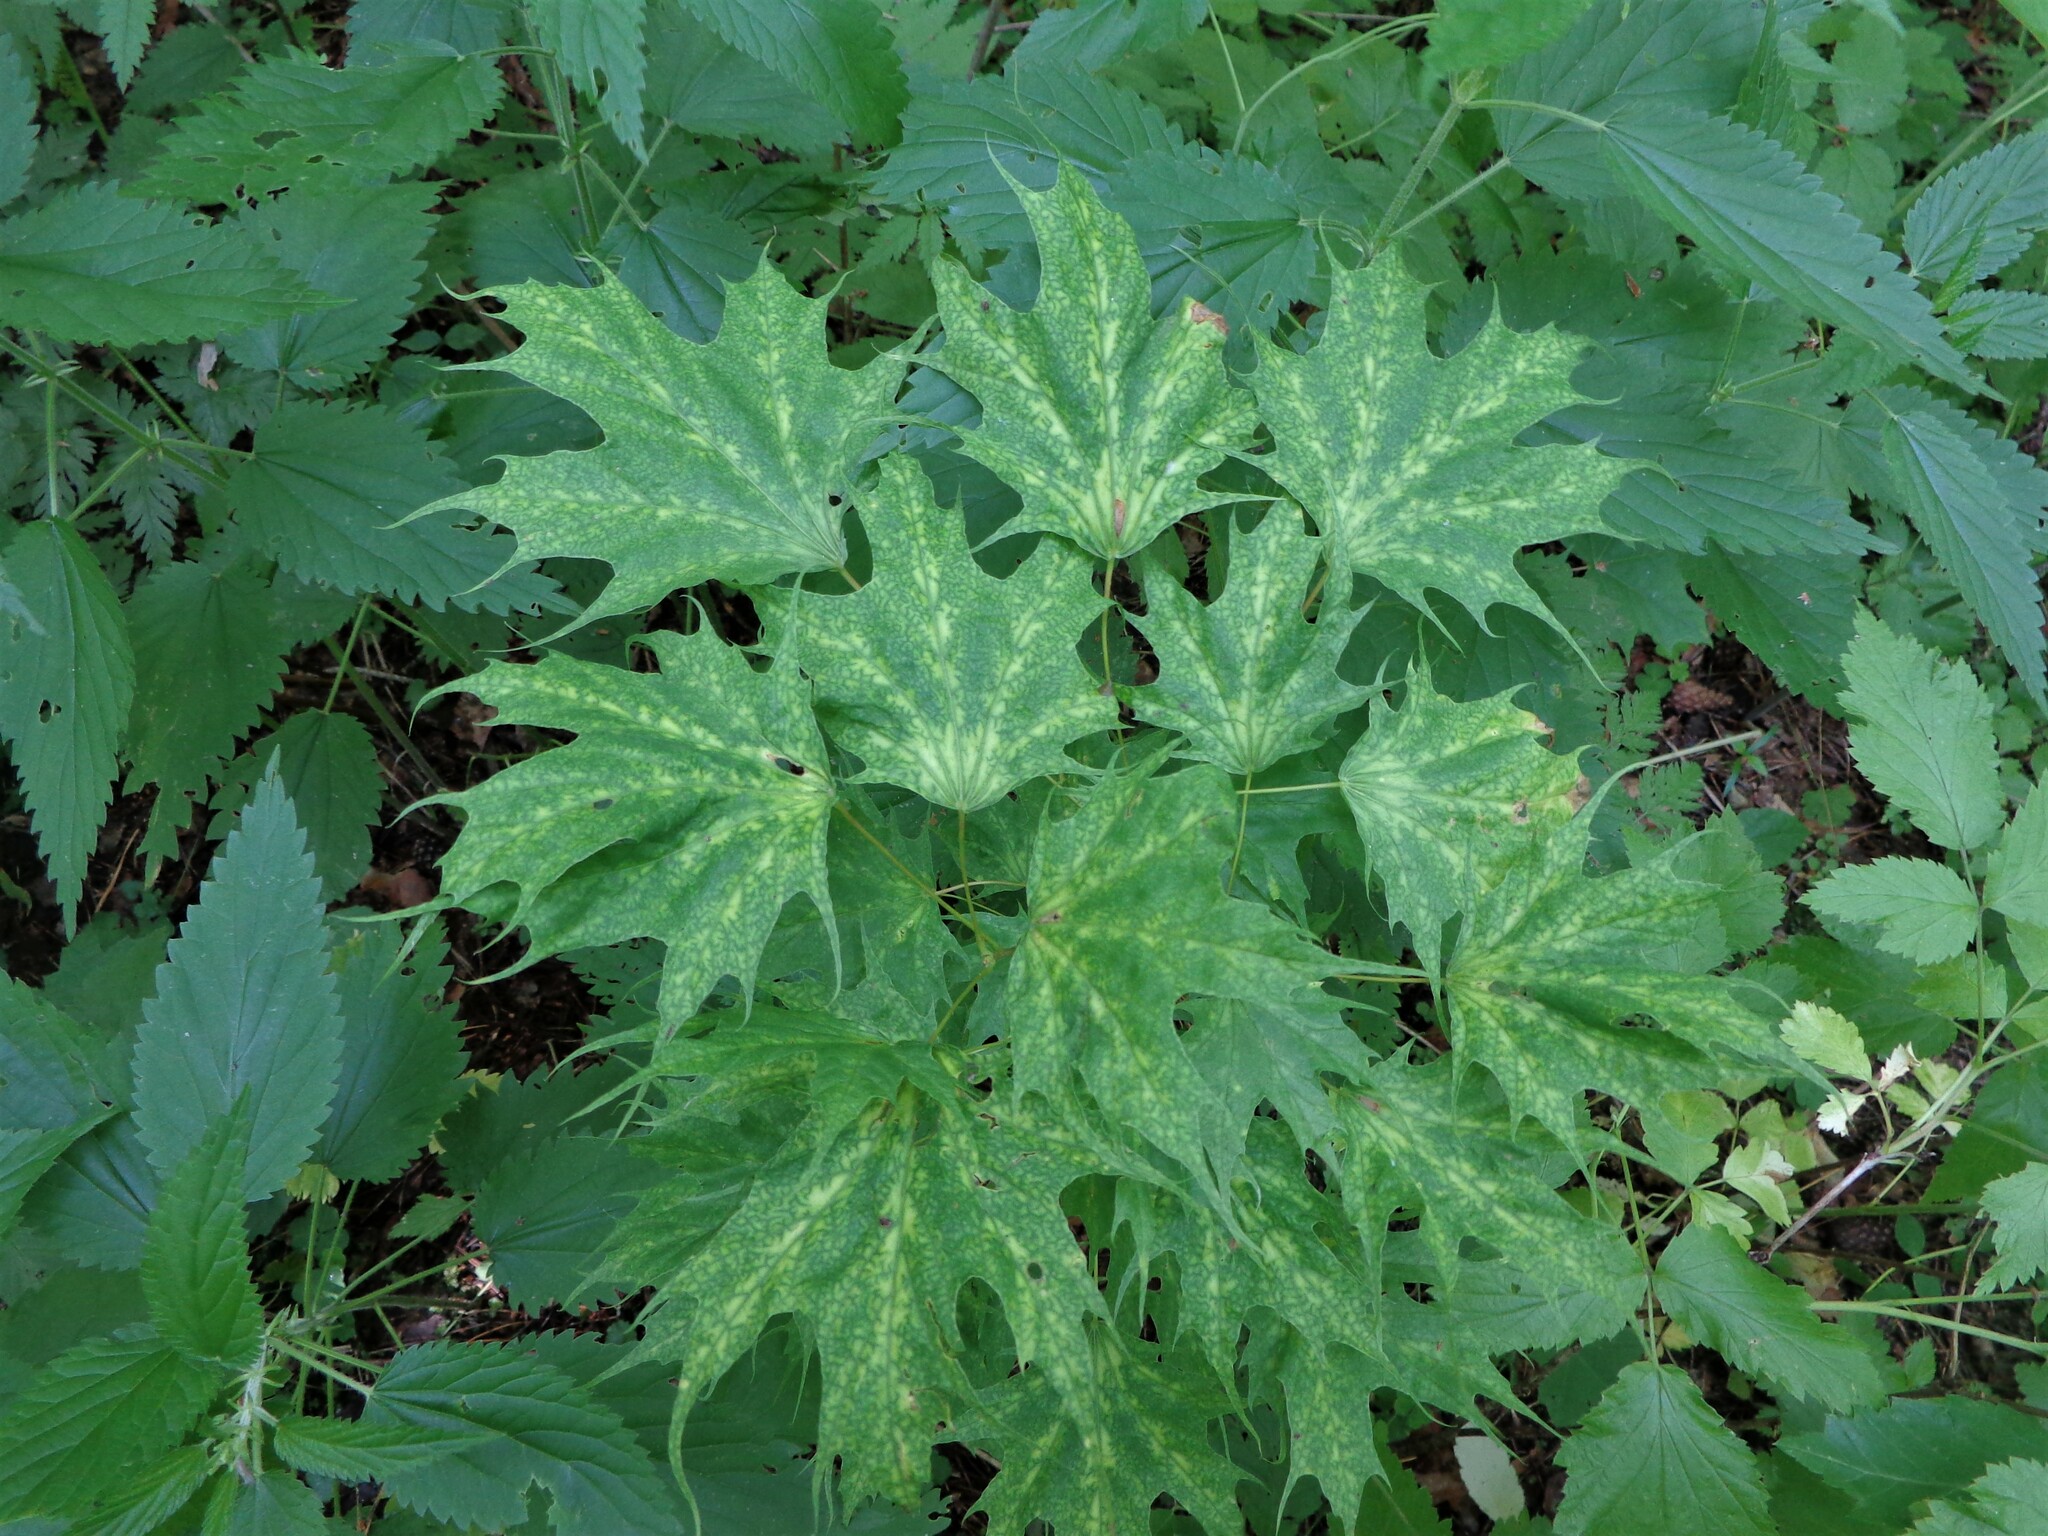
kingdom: Plantae
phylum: Tracheophyta
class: Magnoliopsida
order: Sapindales
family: Sapindaceae
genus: Acer
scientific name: Acer platanoides
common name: Norway maple
